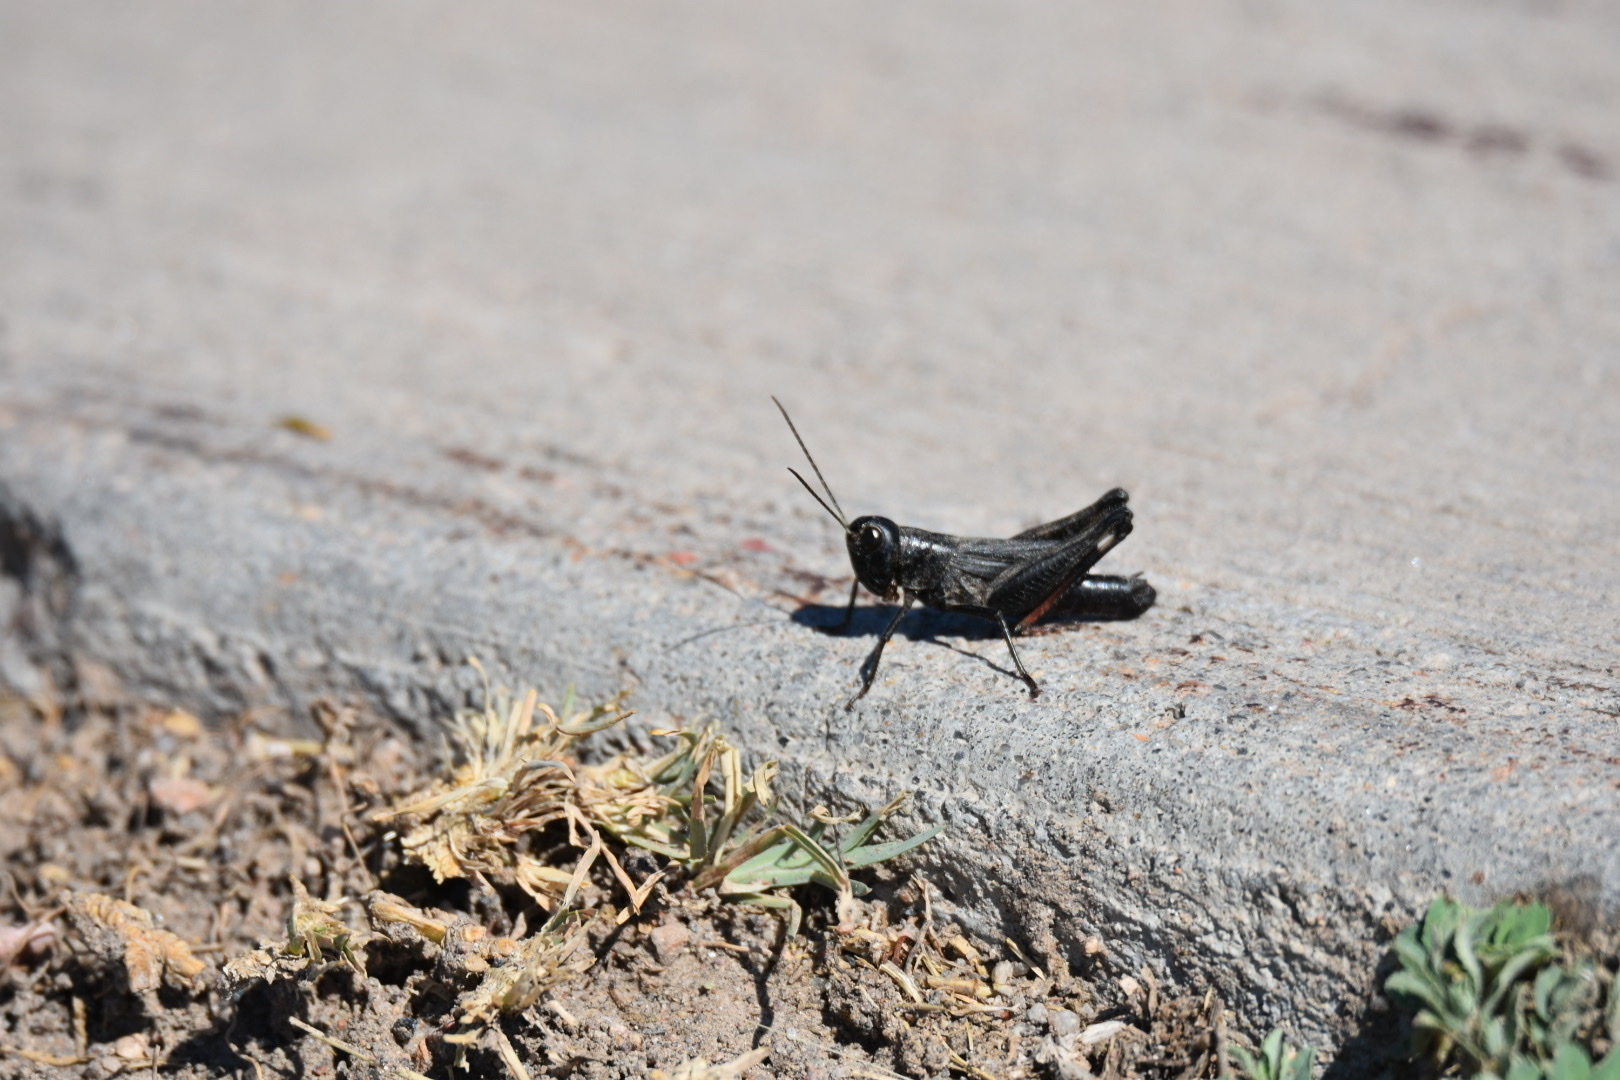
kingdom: Animalia
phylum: Arthropoda
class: Insecta
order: Orthoptera
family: Acrididae
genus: Boopedon
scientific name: Boopedon nubilum
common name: Ebony grasshopper
